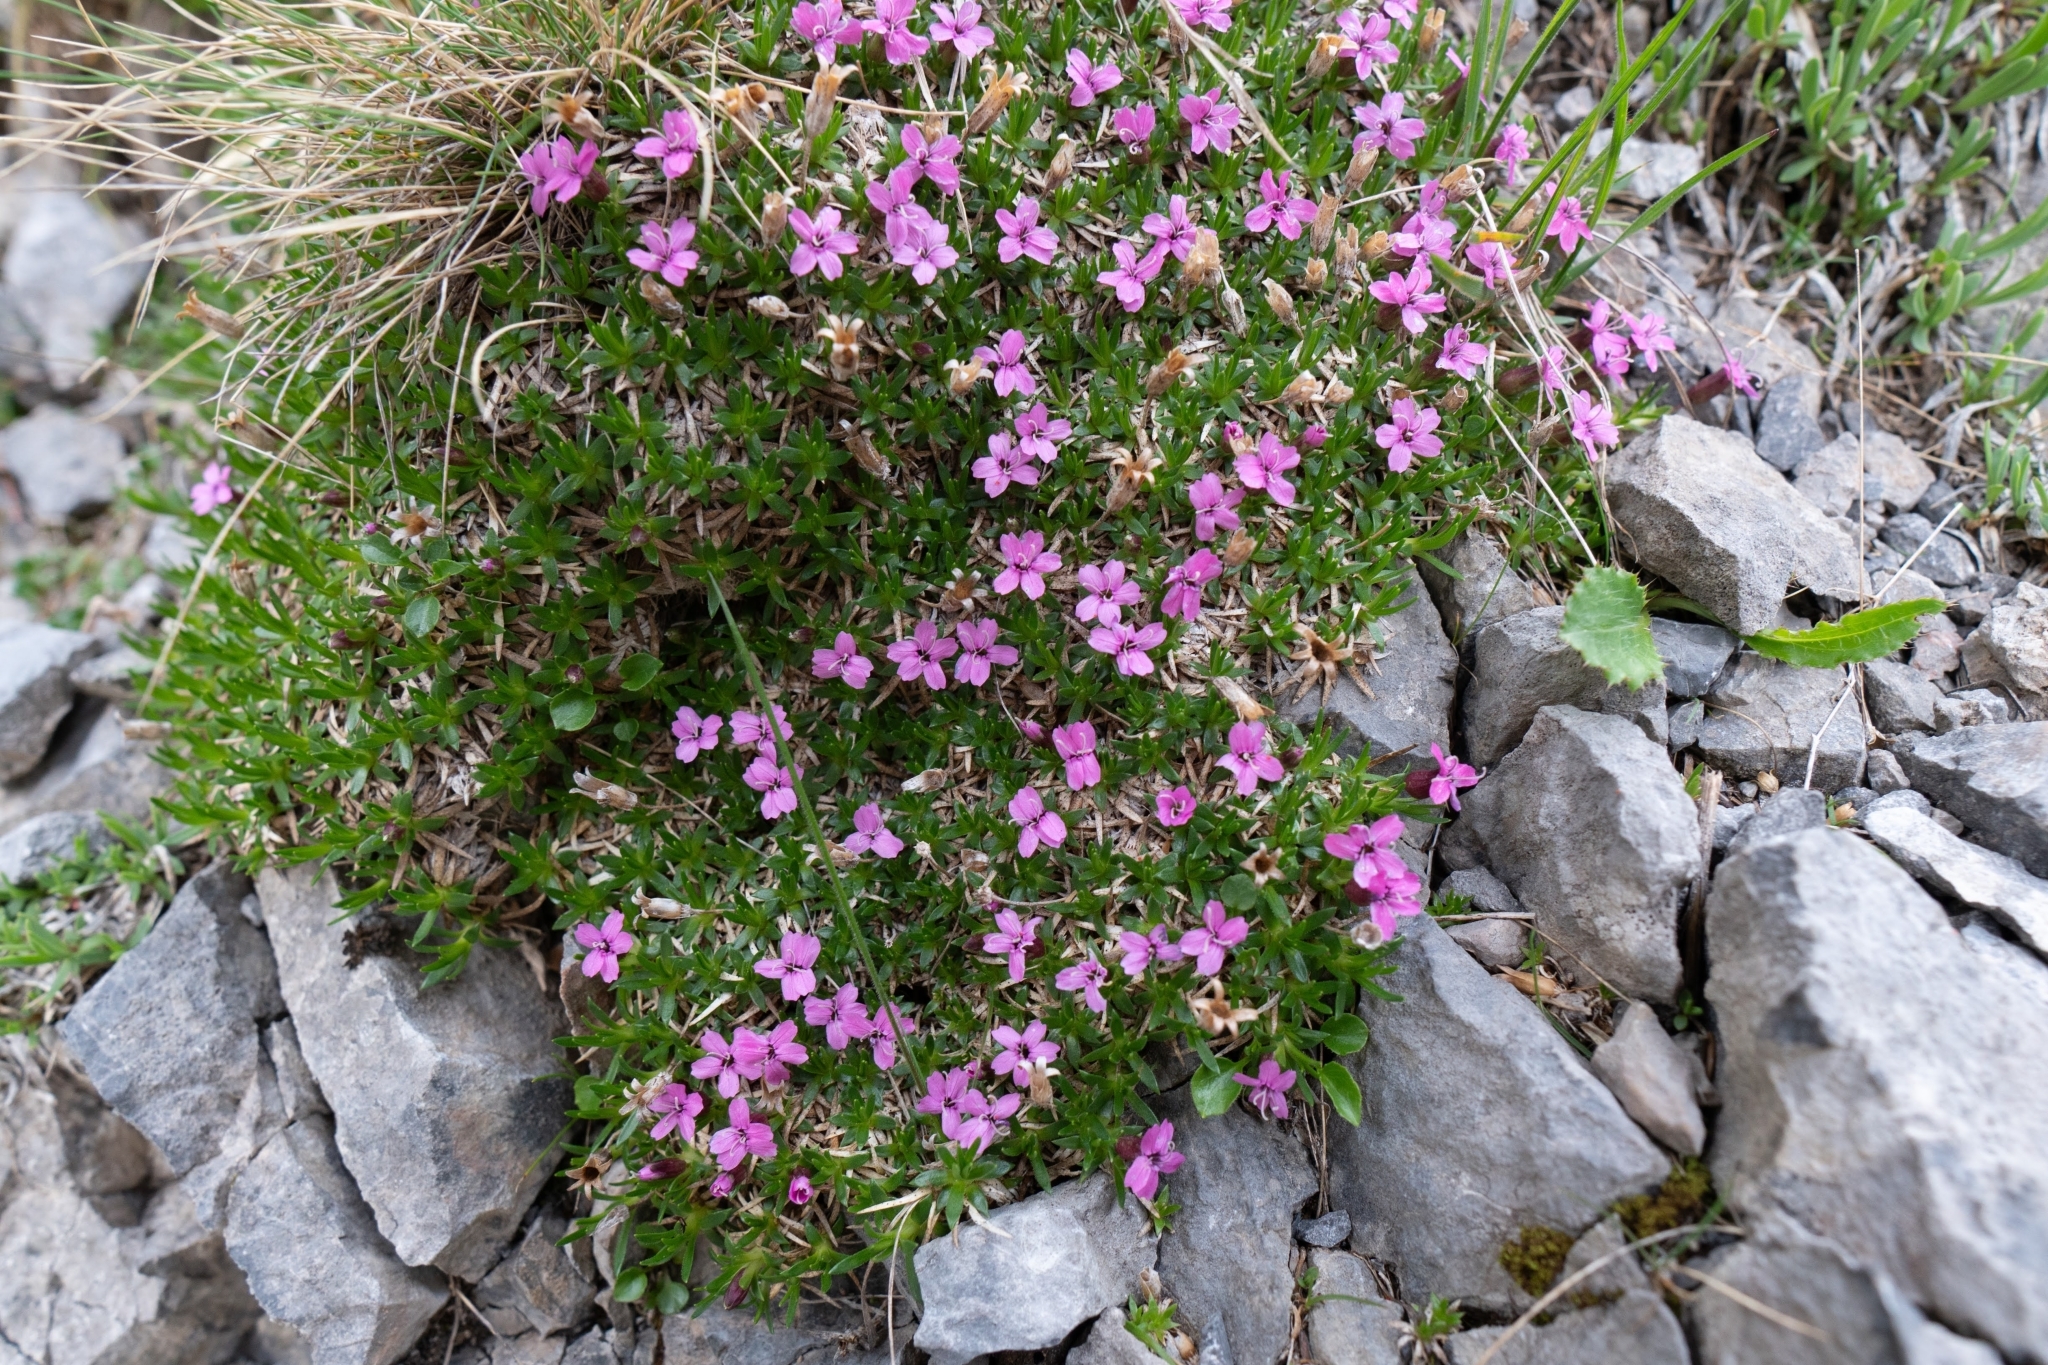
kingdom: Plantae
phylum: Tracheophyta
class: Magnoliopsida
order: Caryophyllales
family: Caryophyllaceae
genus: Silene
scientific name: Silene acaulis
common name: Moss campion
